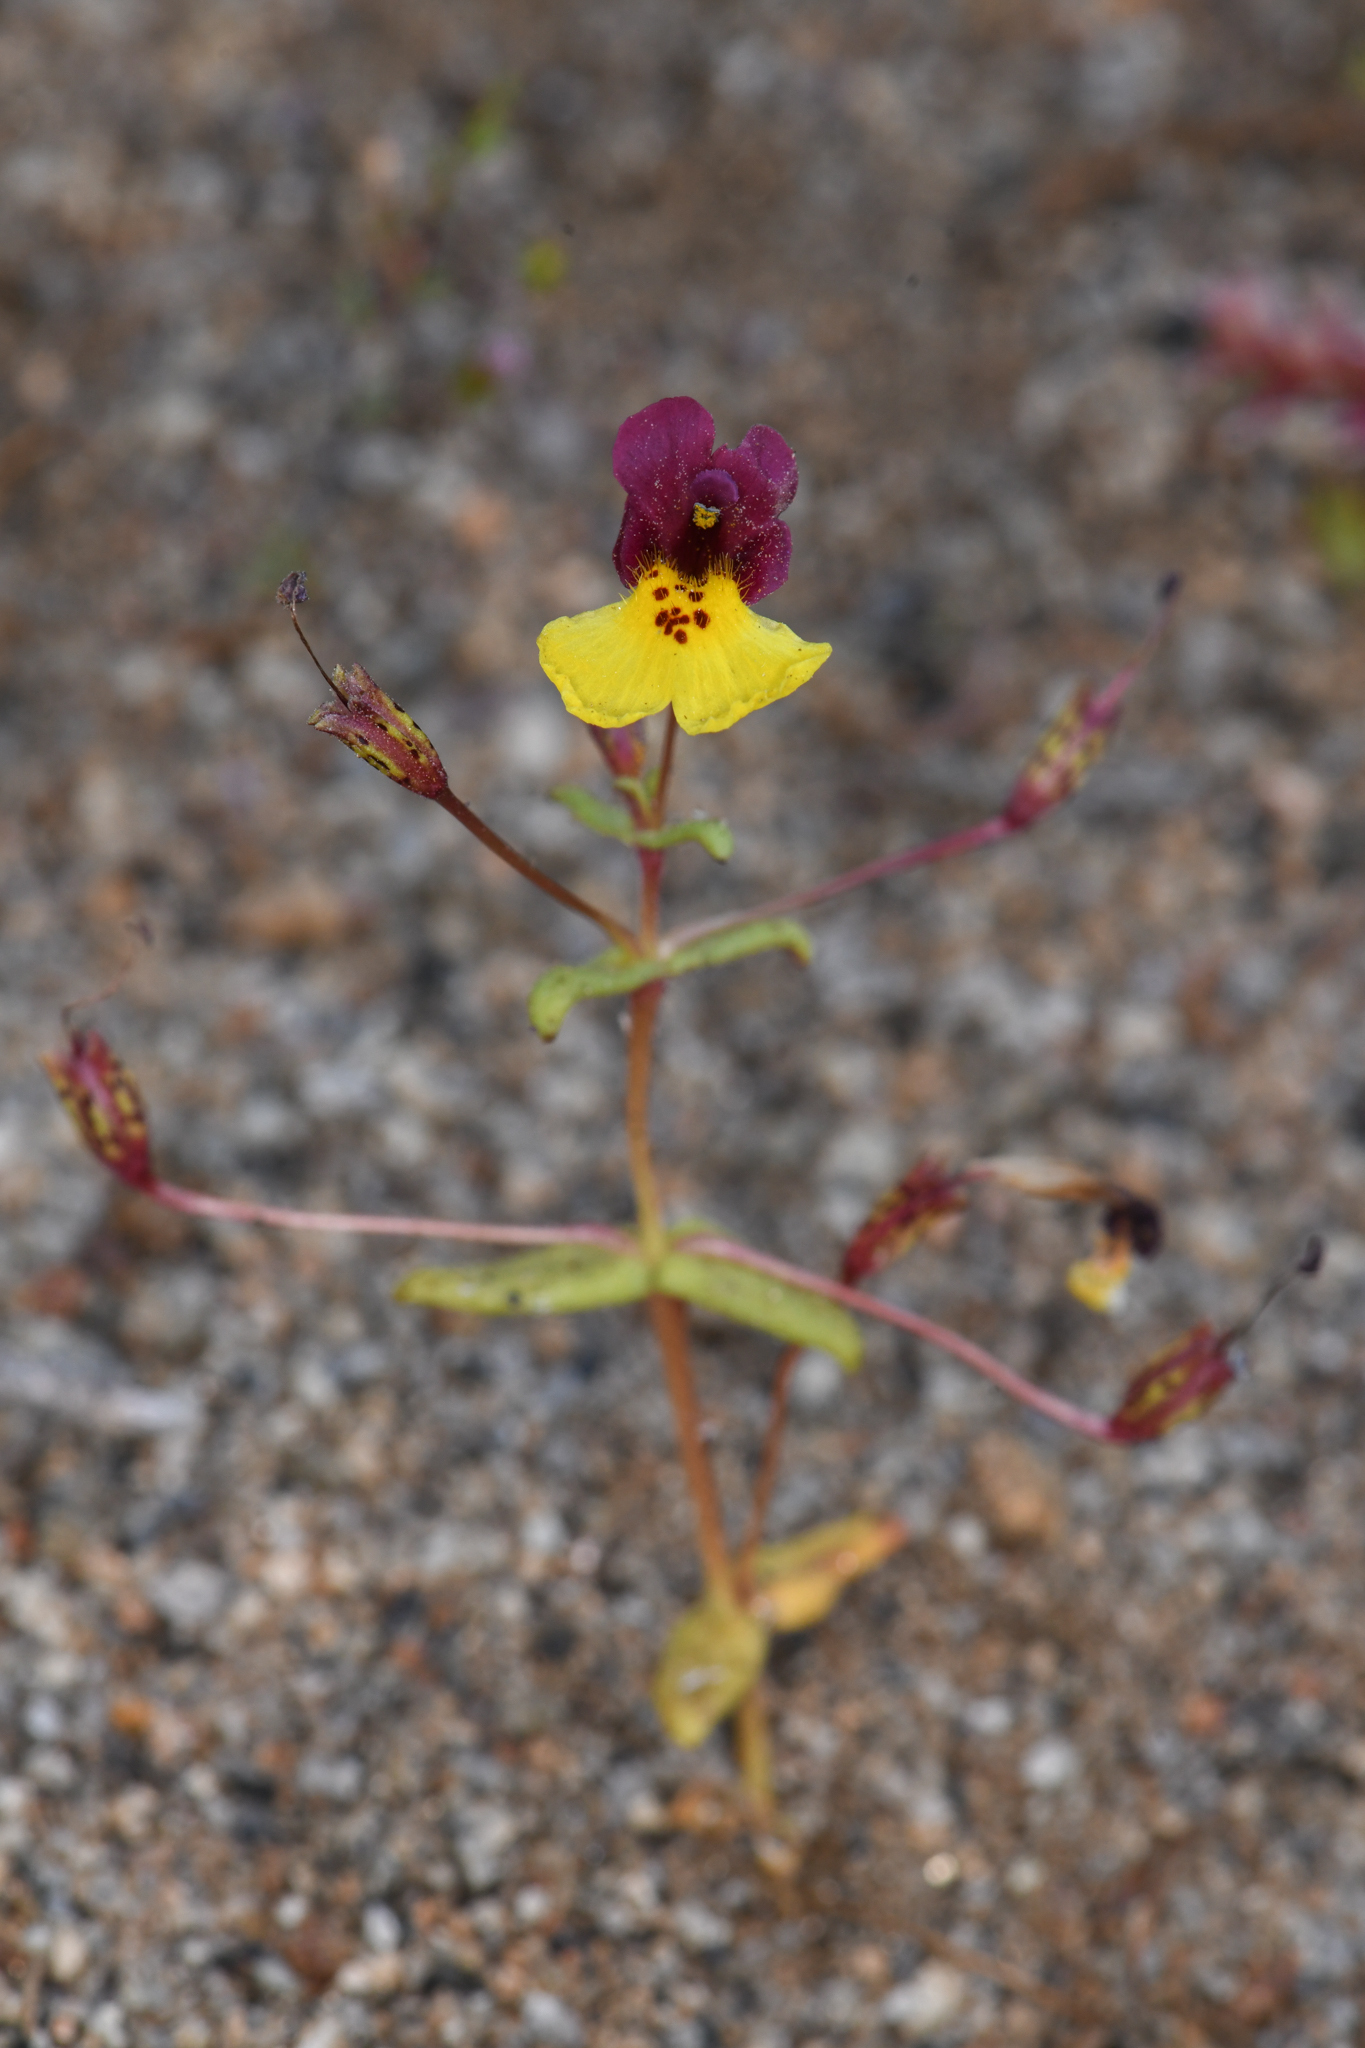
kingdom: Plantae
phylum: Tracheophyta
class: Magnoliopsida
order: Lamiales
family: Phrymaceae
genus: Erythranthe
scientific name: Erythranthe shevockii
